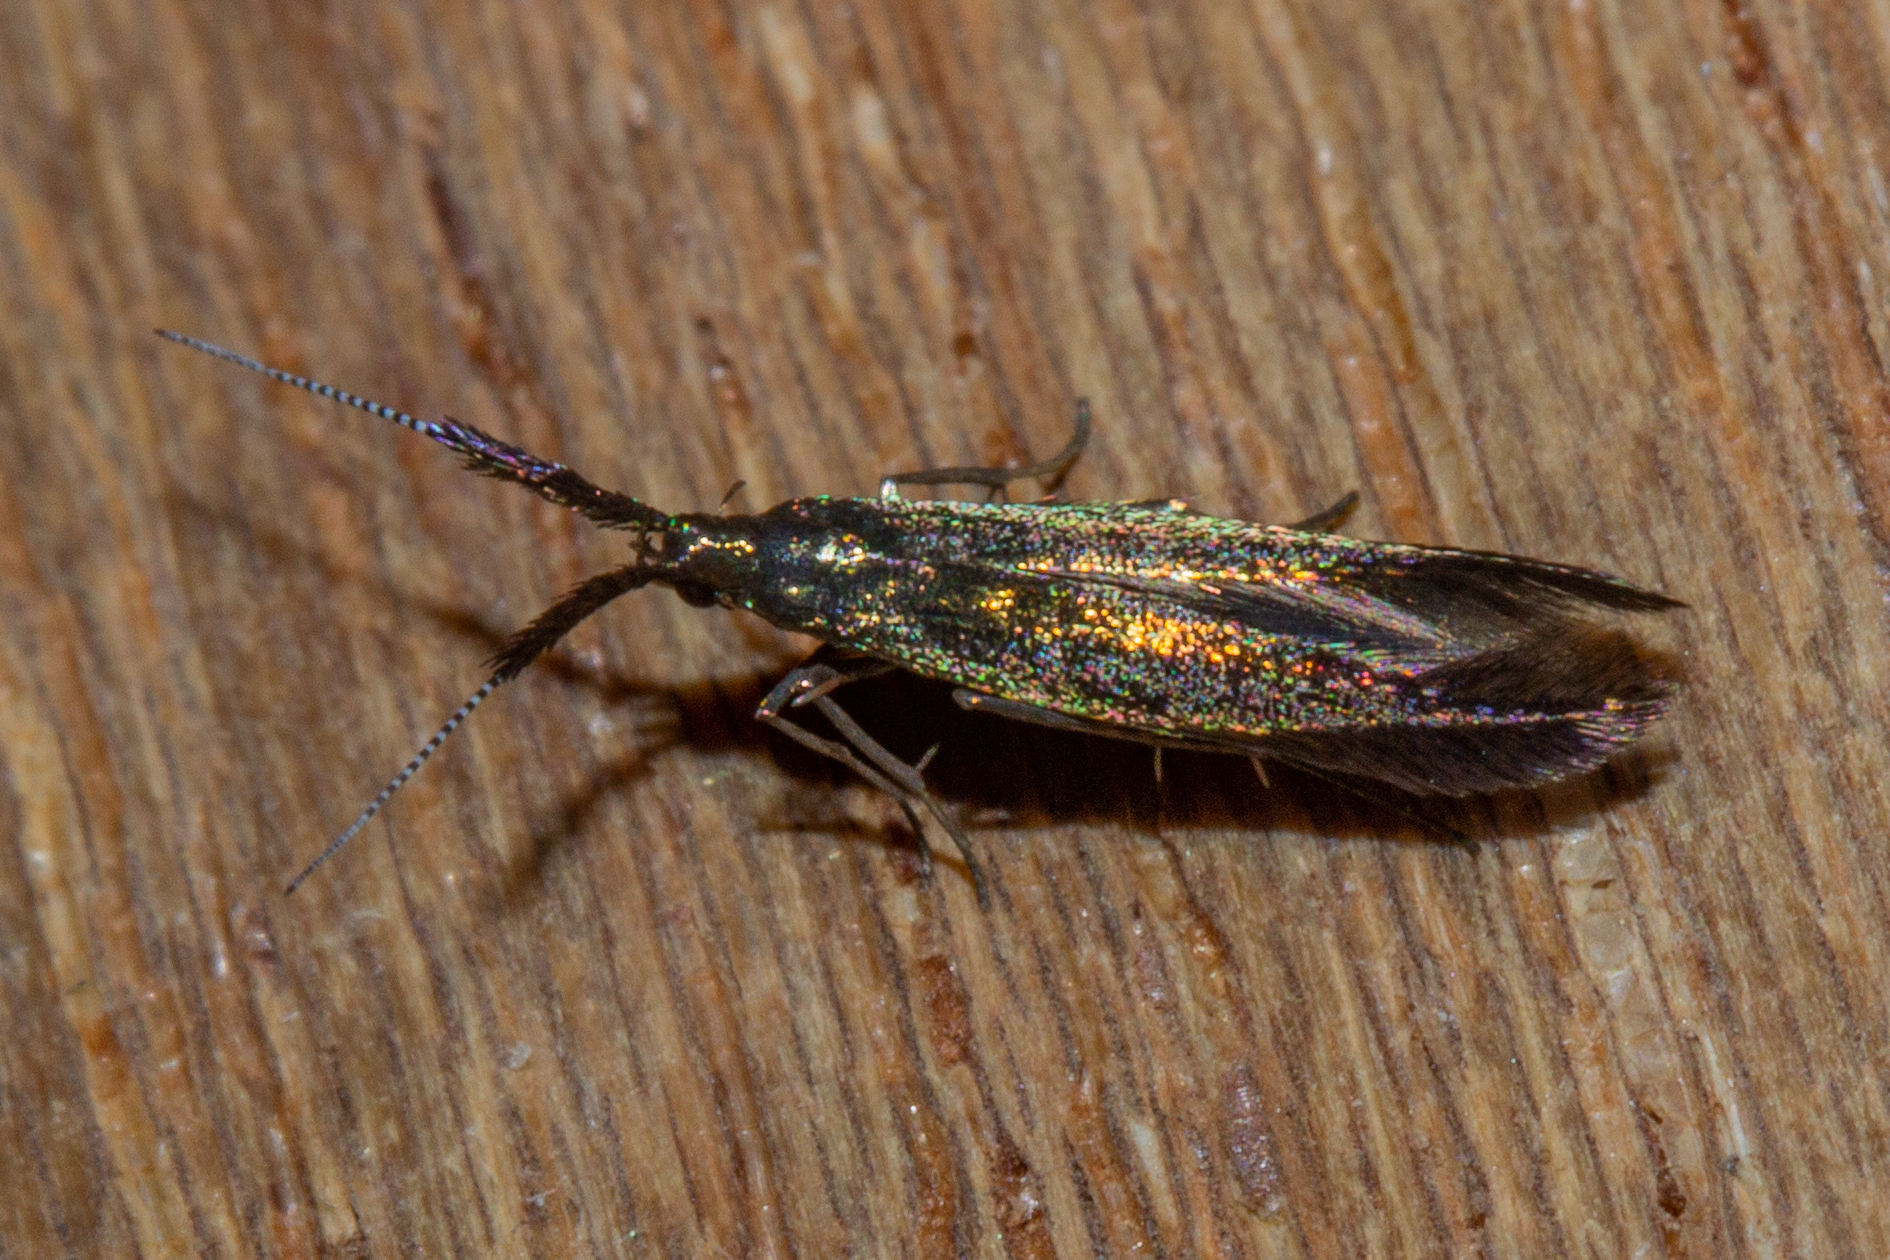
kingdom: Animalia
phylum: Arthropoda
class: Insecta
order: Lepidoptera
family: Coleophoridae
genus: Coleophora
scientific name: Coleophora mayrella
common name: Meadow case-bearer
